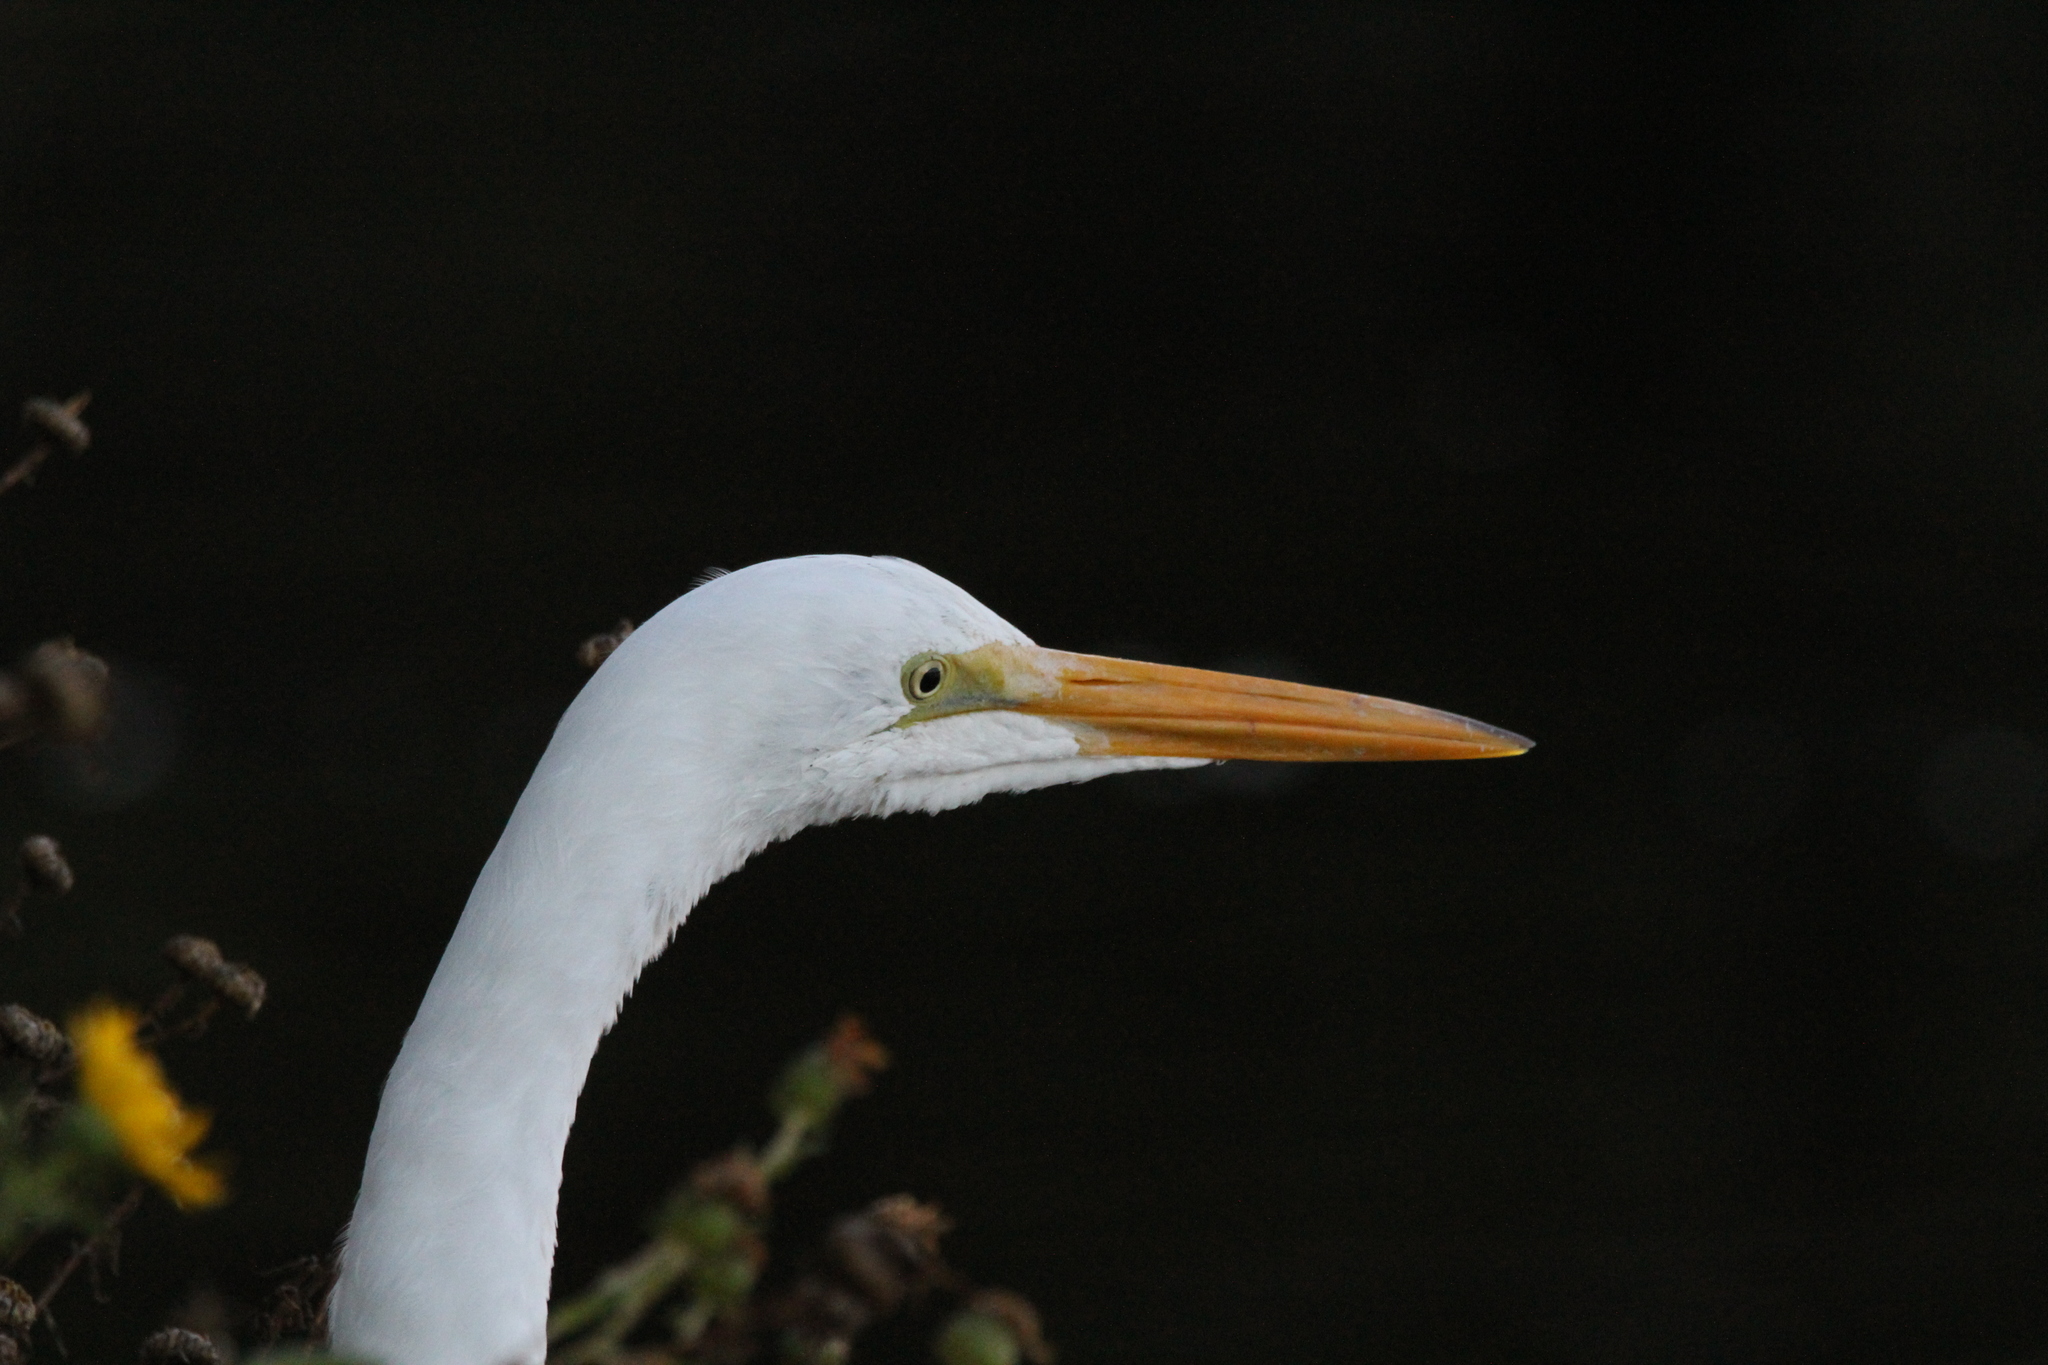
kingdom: Animalia
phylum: Chordata
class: Aves
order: Pelecaniformes
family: Ardeidae
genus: Ardea
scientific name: Ardea alba
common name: Great egret
